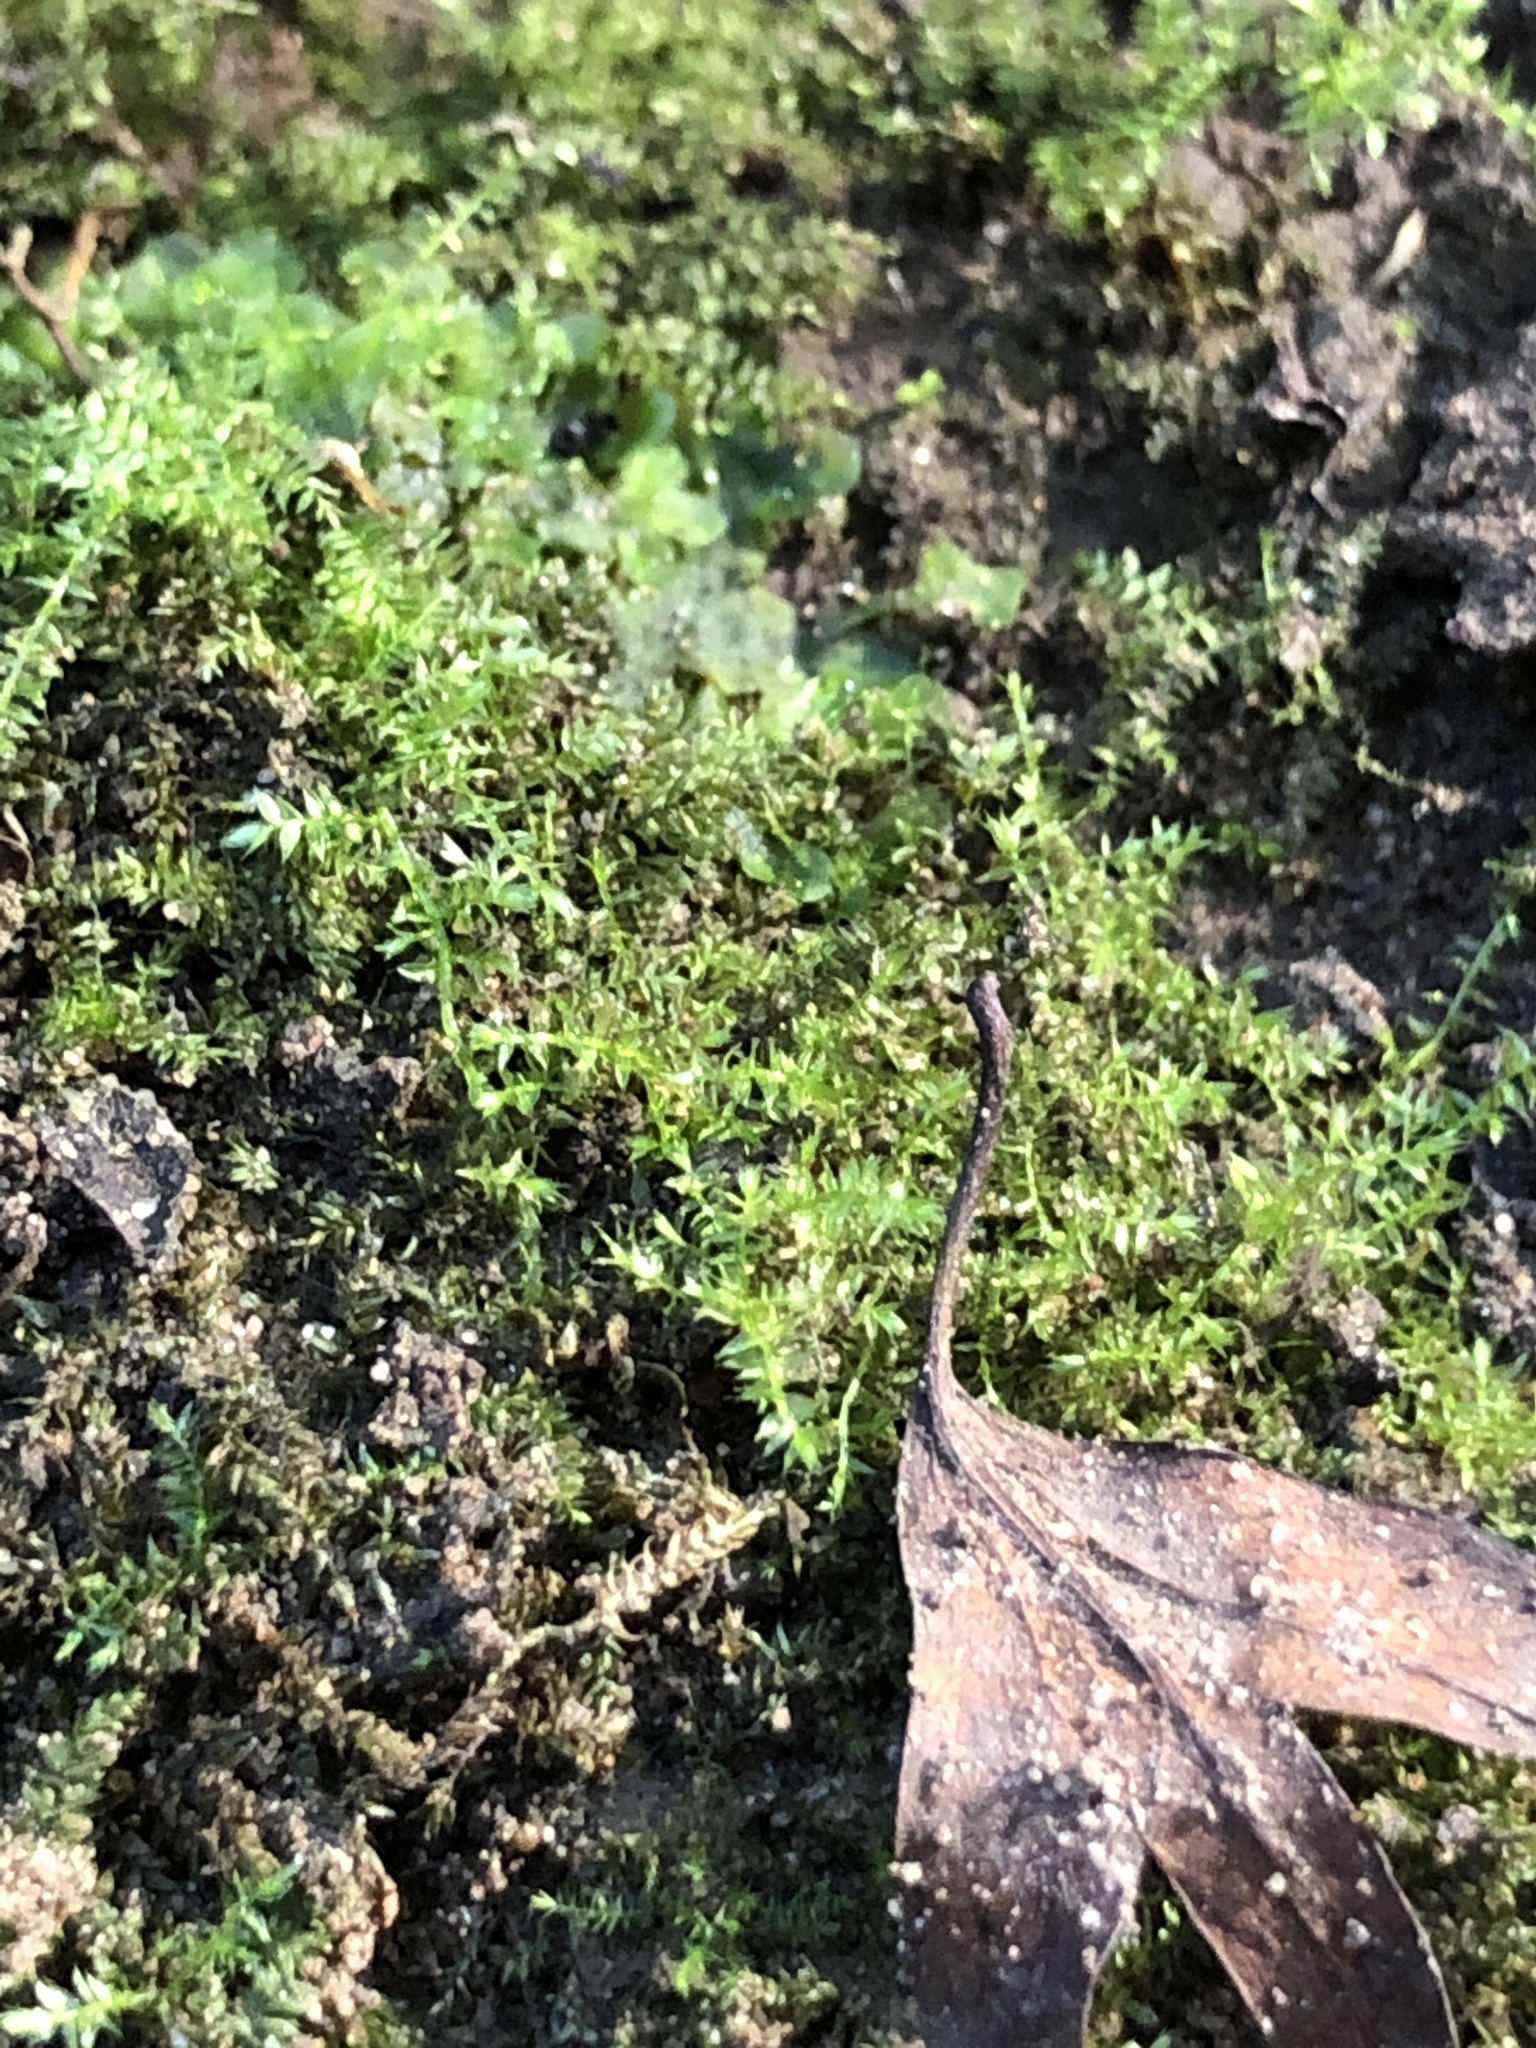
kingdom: Plantae
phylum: Bryophyta
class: Bryopsida
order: Hypnales
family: Brachytheciaceae
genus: Oxyrrhynchium
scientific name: Oxyrrhynchium hians
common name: Spreading beaked moss
